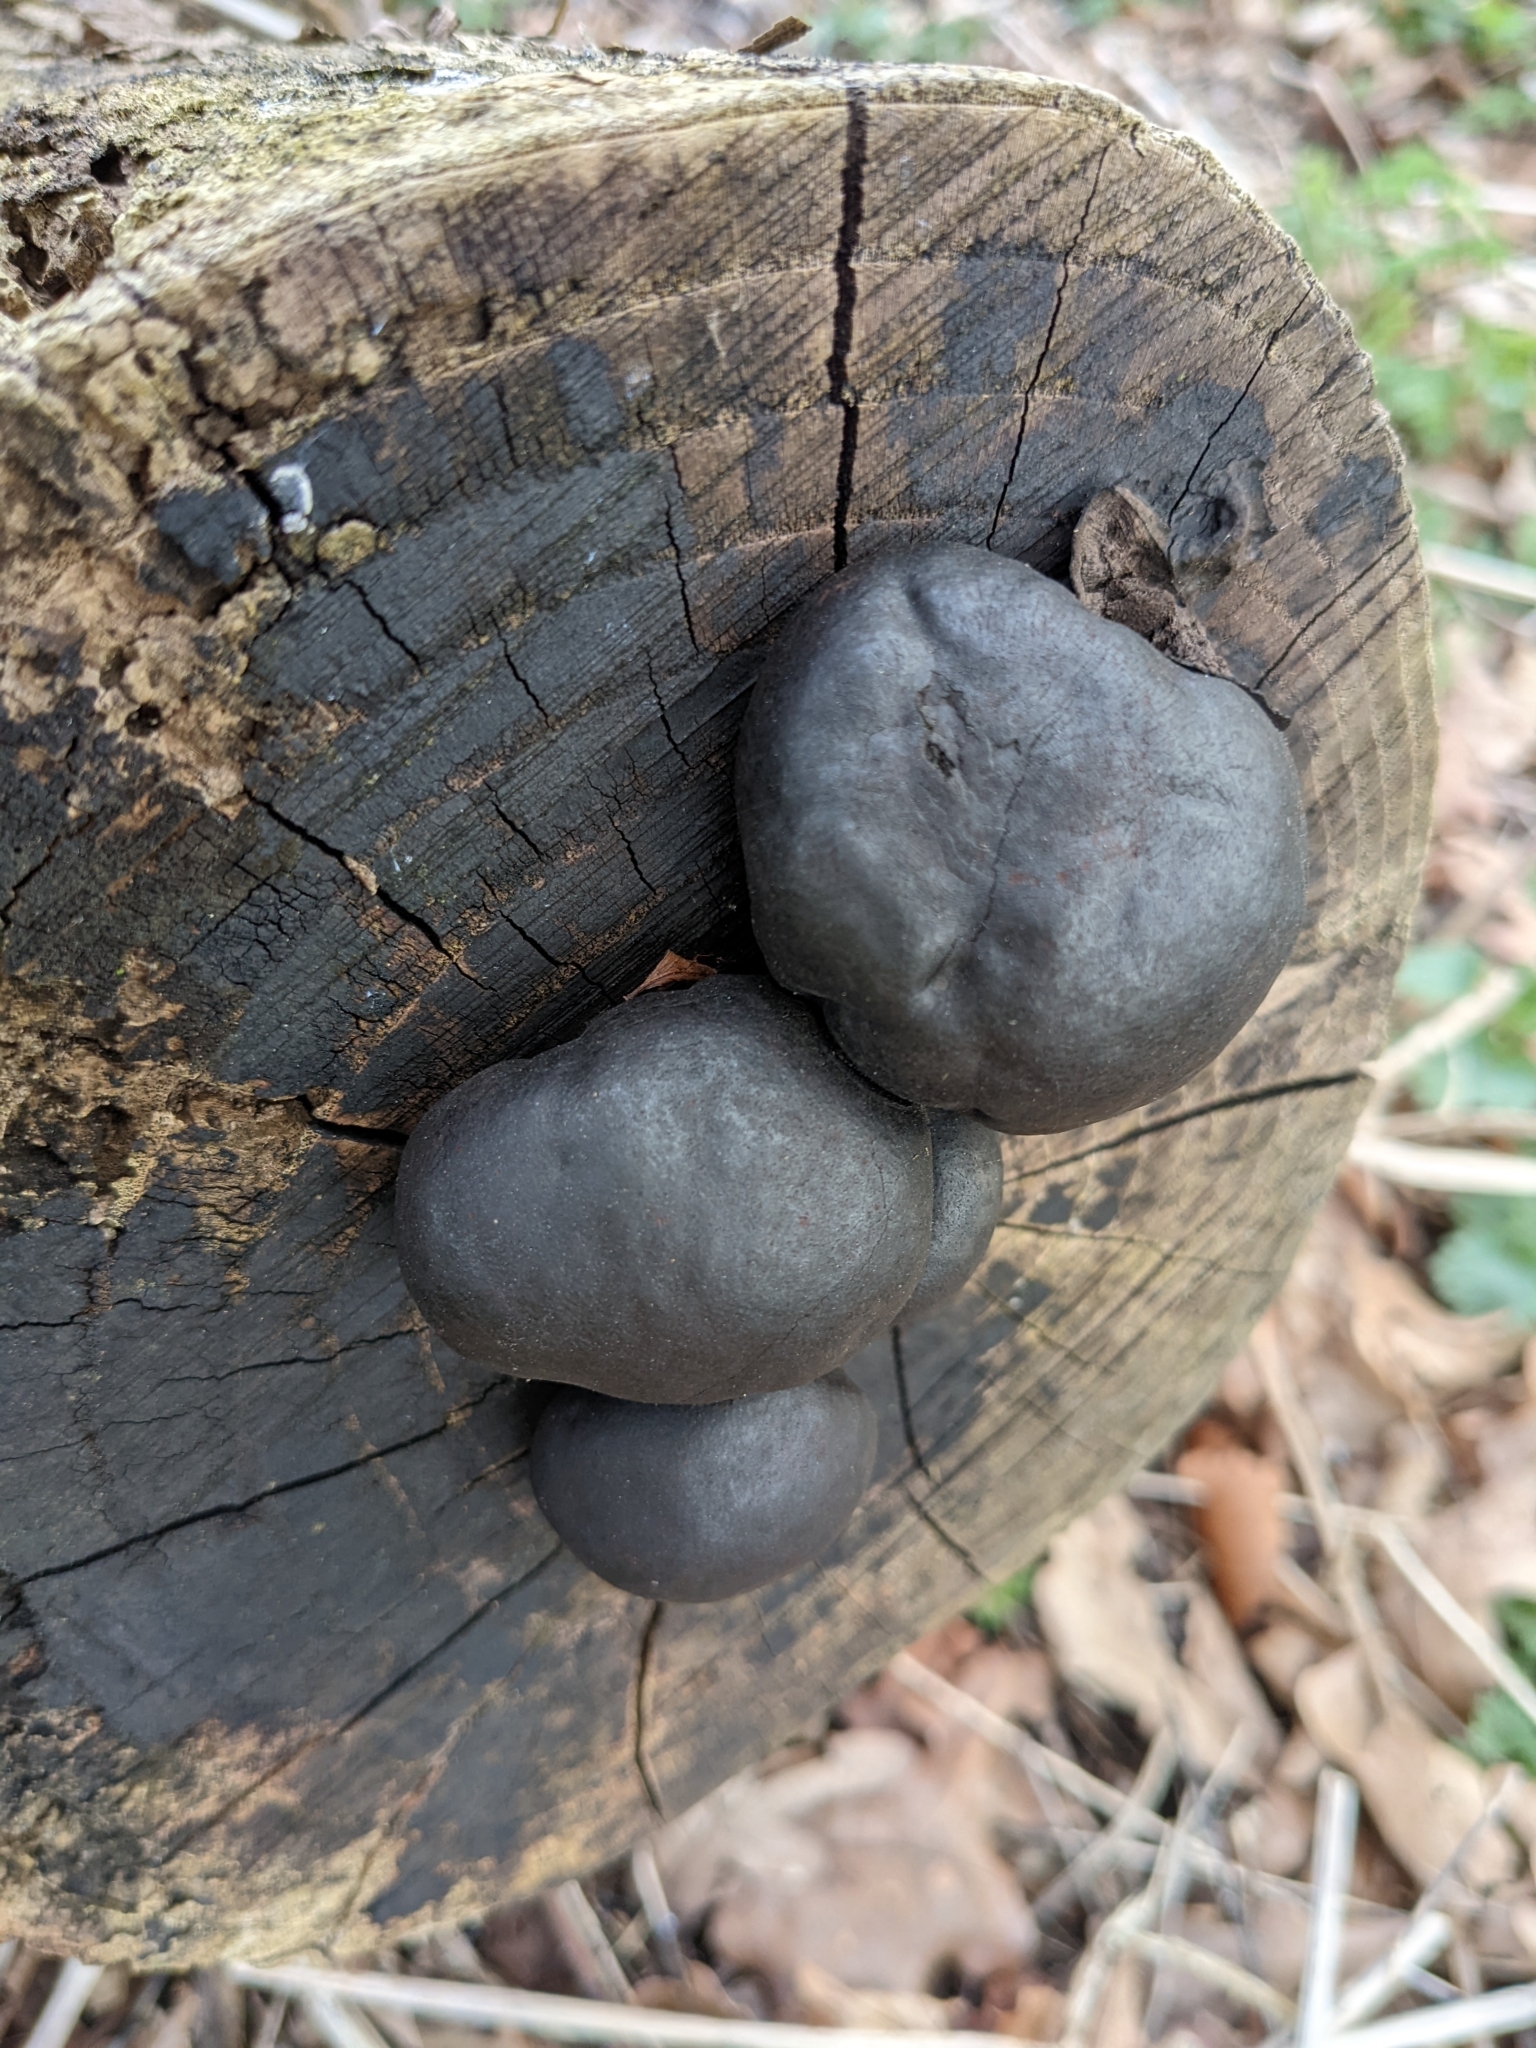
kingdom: Fungi
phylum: Ascomycota
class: Sordariomycetes
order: Xylariales
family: Hypoxylaceae
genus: Daldinia
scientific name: Daldinia concentrica
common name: Cramp balls
